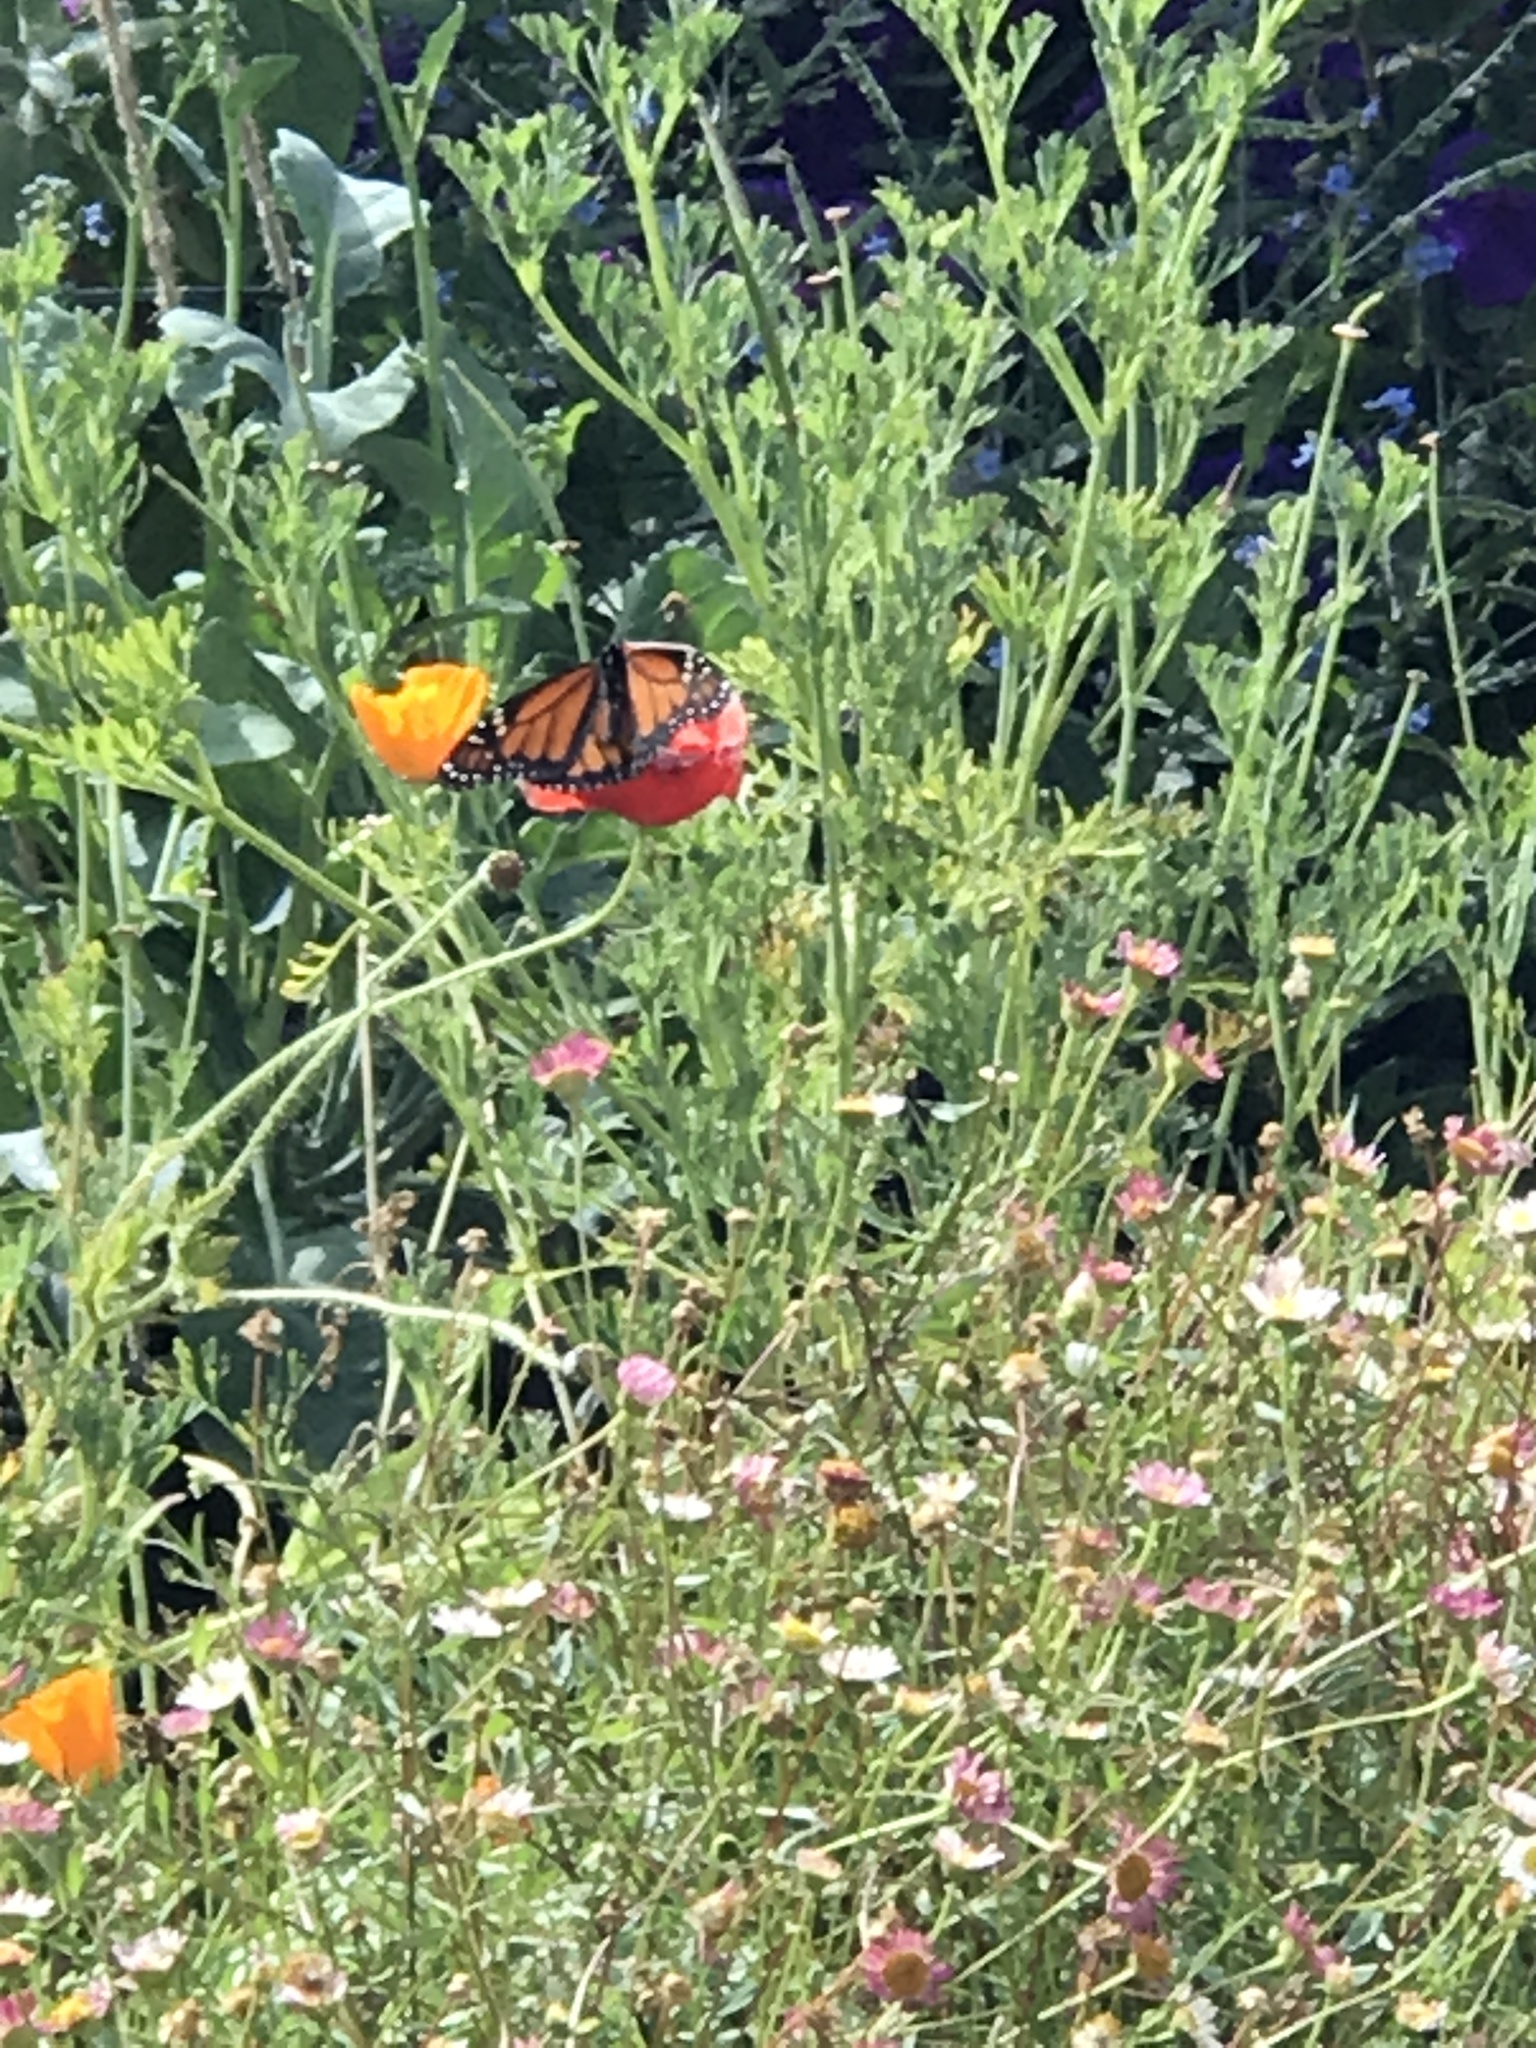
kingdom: Animalia
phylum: Arthropoda
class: Insecta
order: Lepidoptera
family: Nymphalidae
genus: Danaus
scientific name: Danaus plexippus
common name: Monarch
